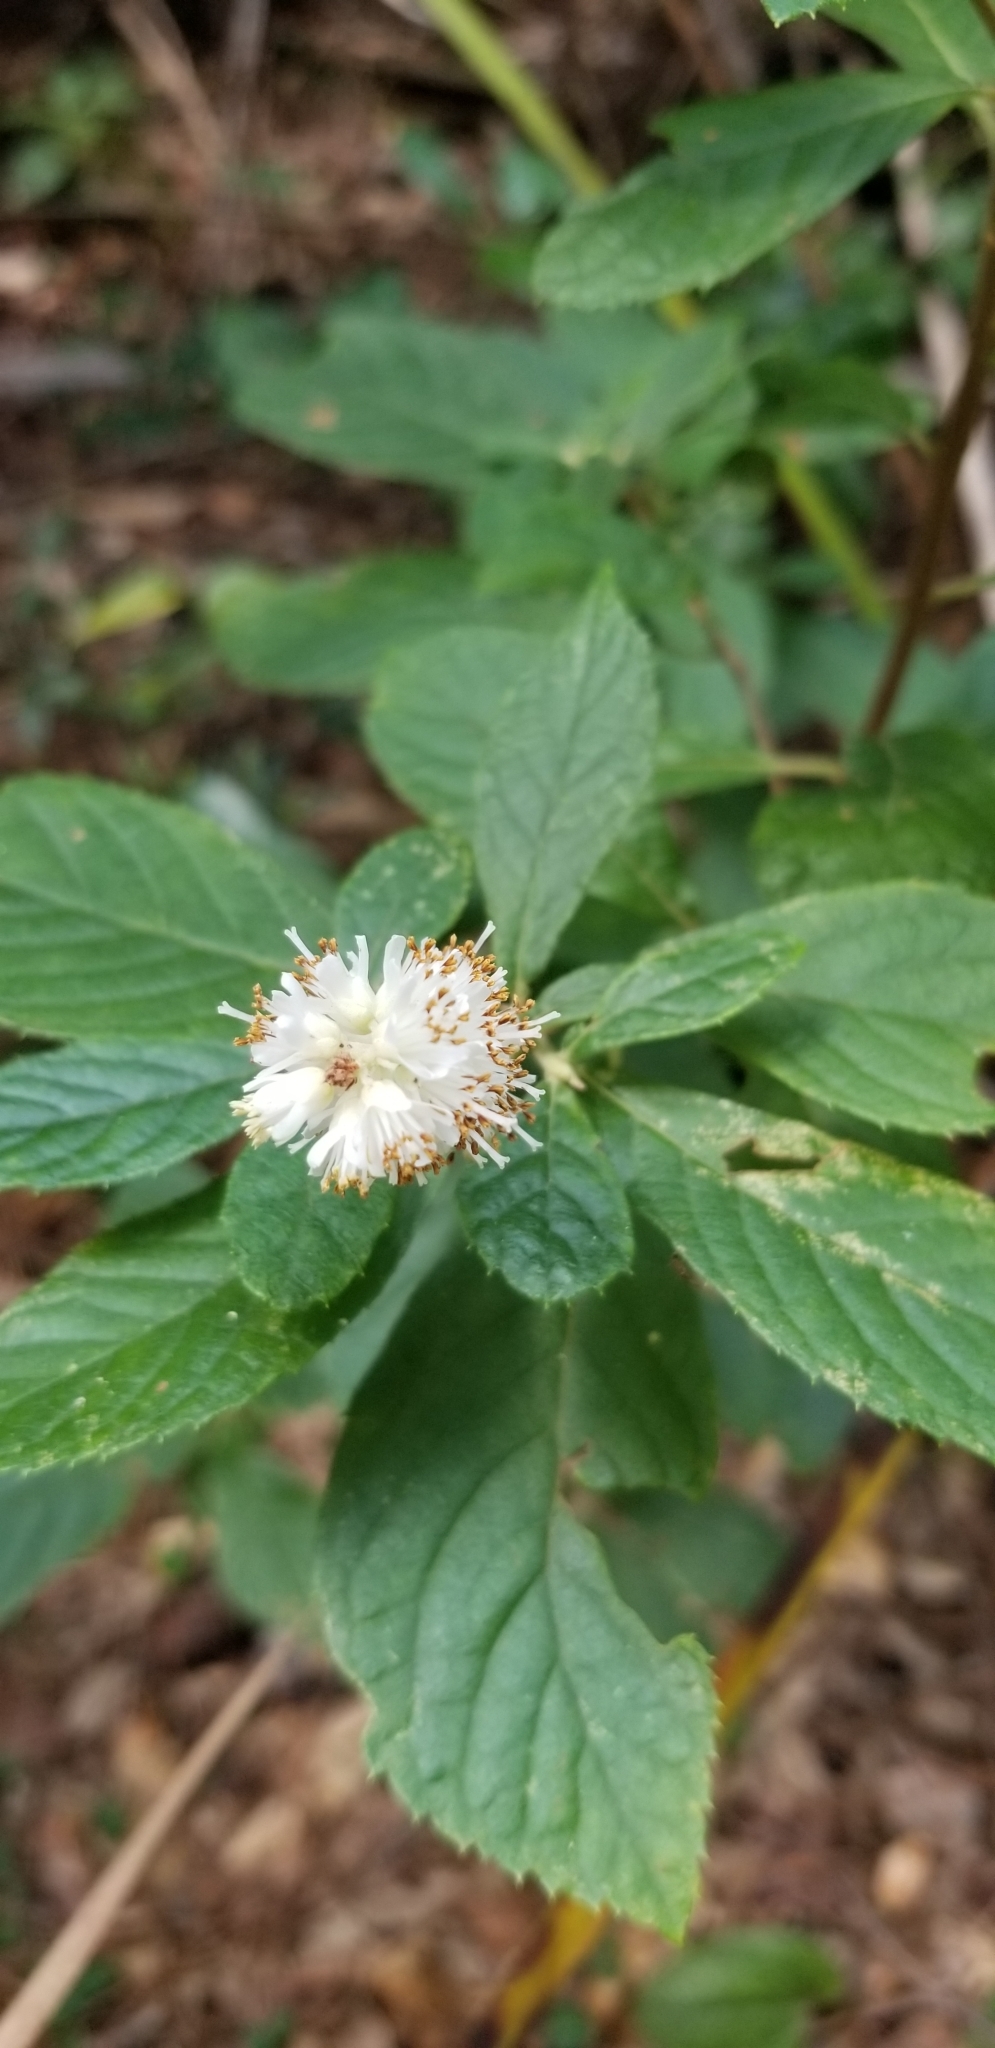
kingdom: Plantae
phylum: Tracheophyta
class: Magnoliopsida
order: Ericales
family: Clethraceae
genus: Clethra
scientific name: Clethra alnifolia
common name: Sweet pepperbush
